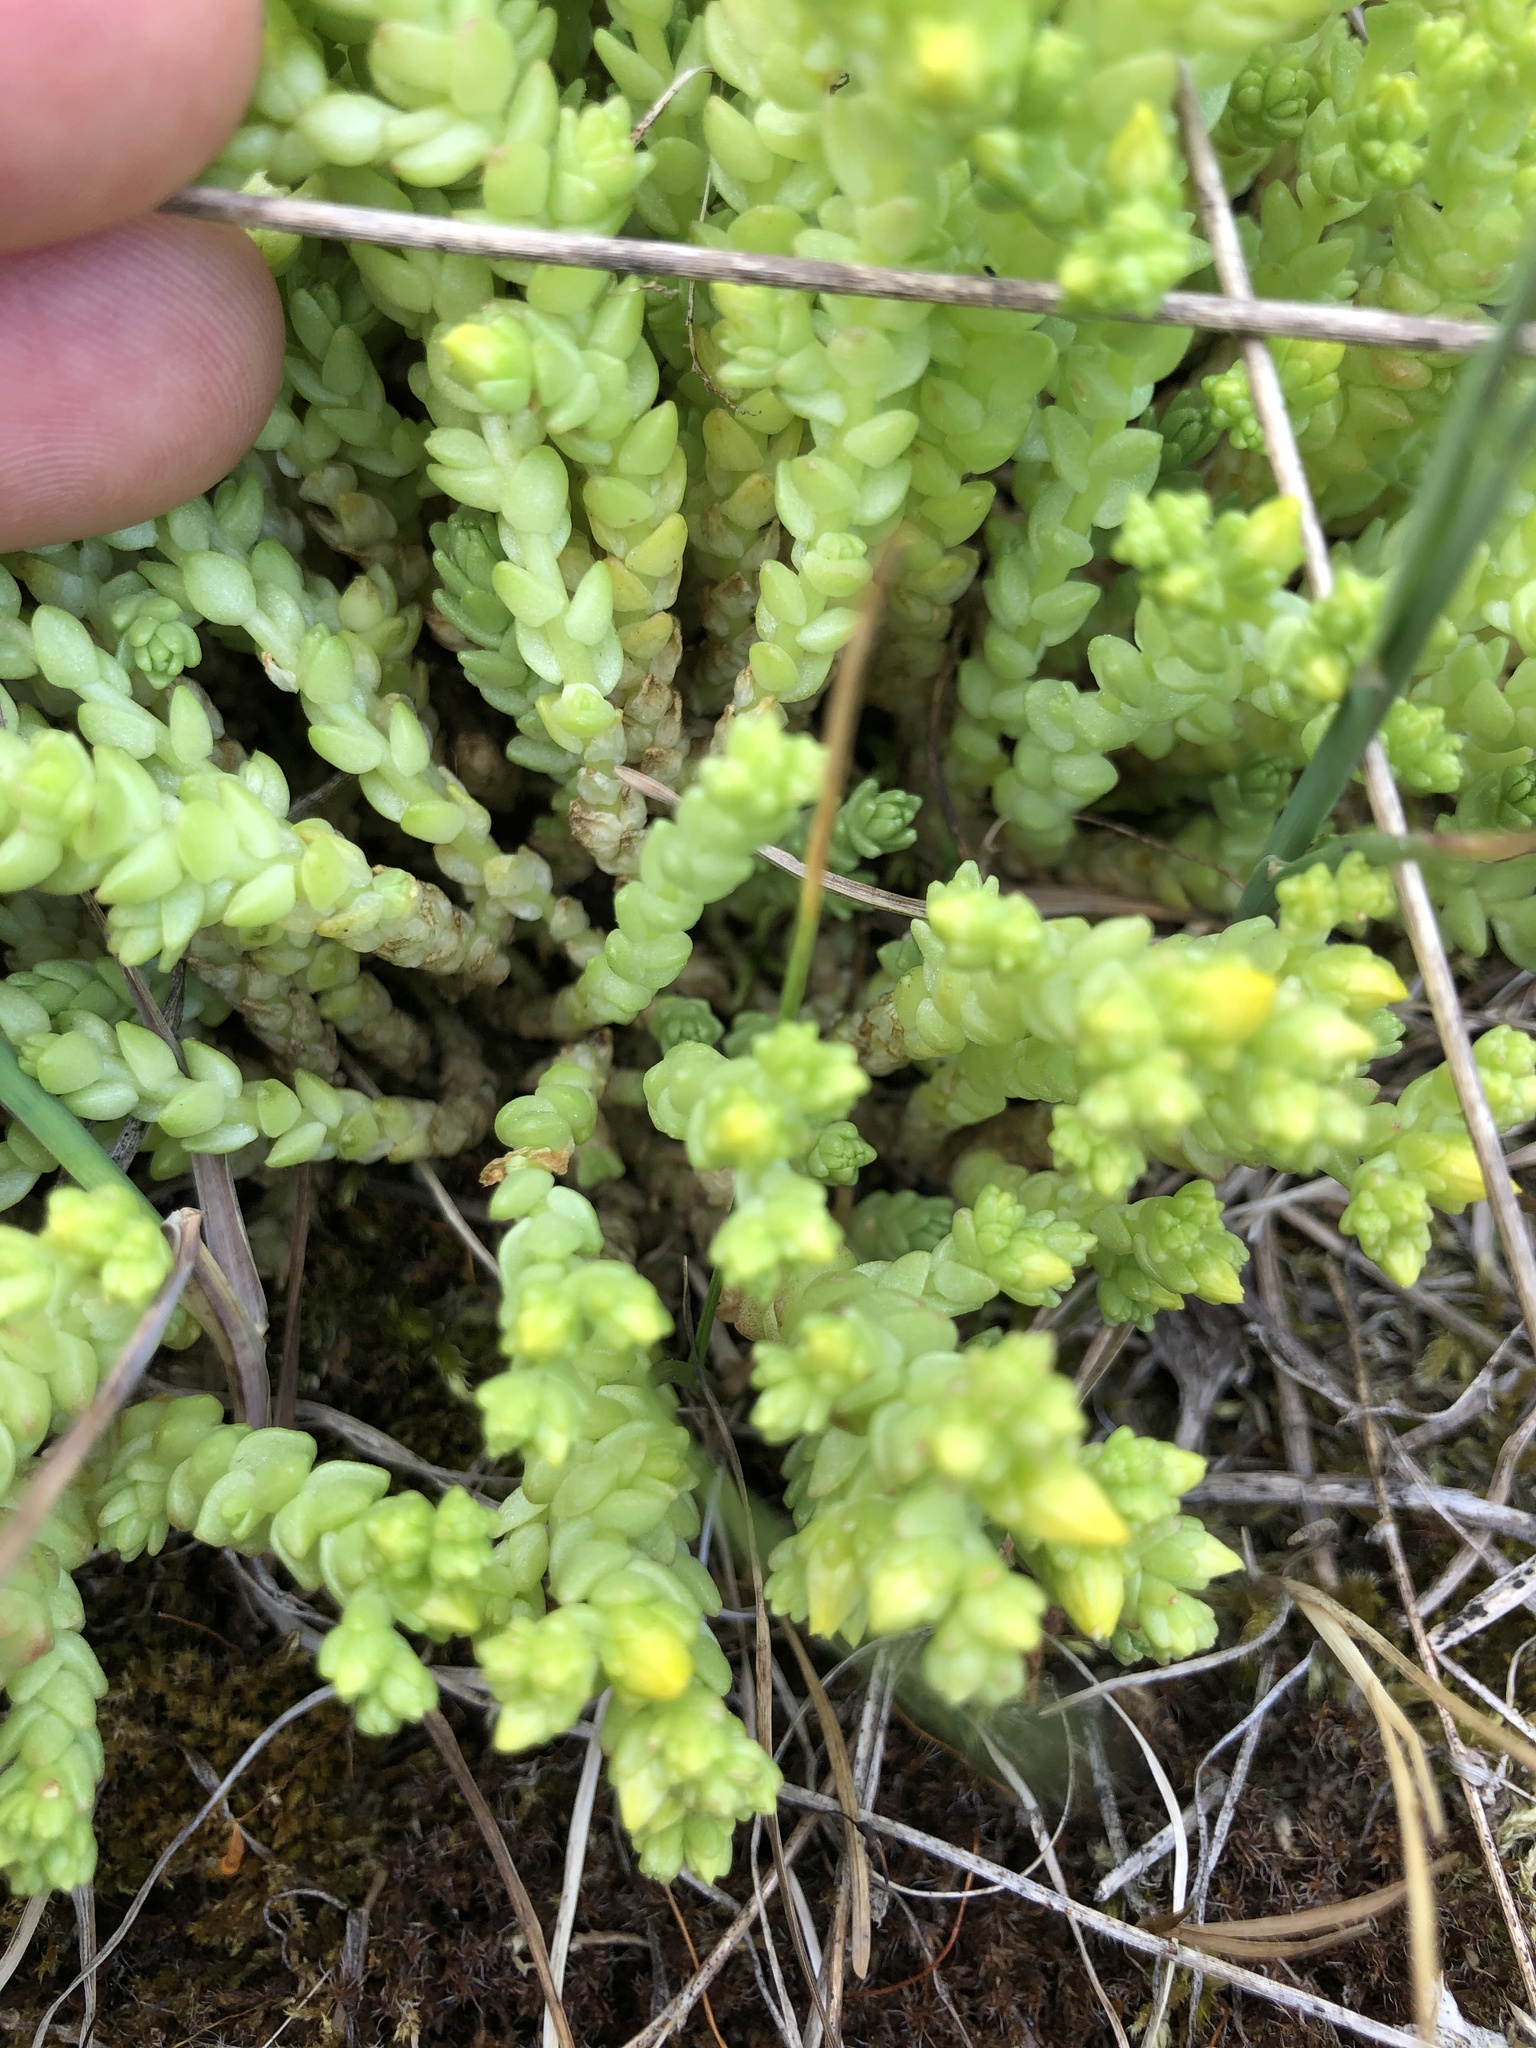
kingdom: Plantae
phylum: Tracheophyta
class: Magnoliopsida
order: Saxifragales
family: Crassulaceae
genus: Sedum
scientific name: Sedum acre
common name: Biting stonecrop
